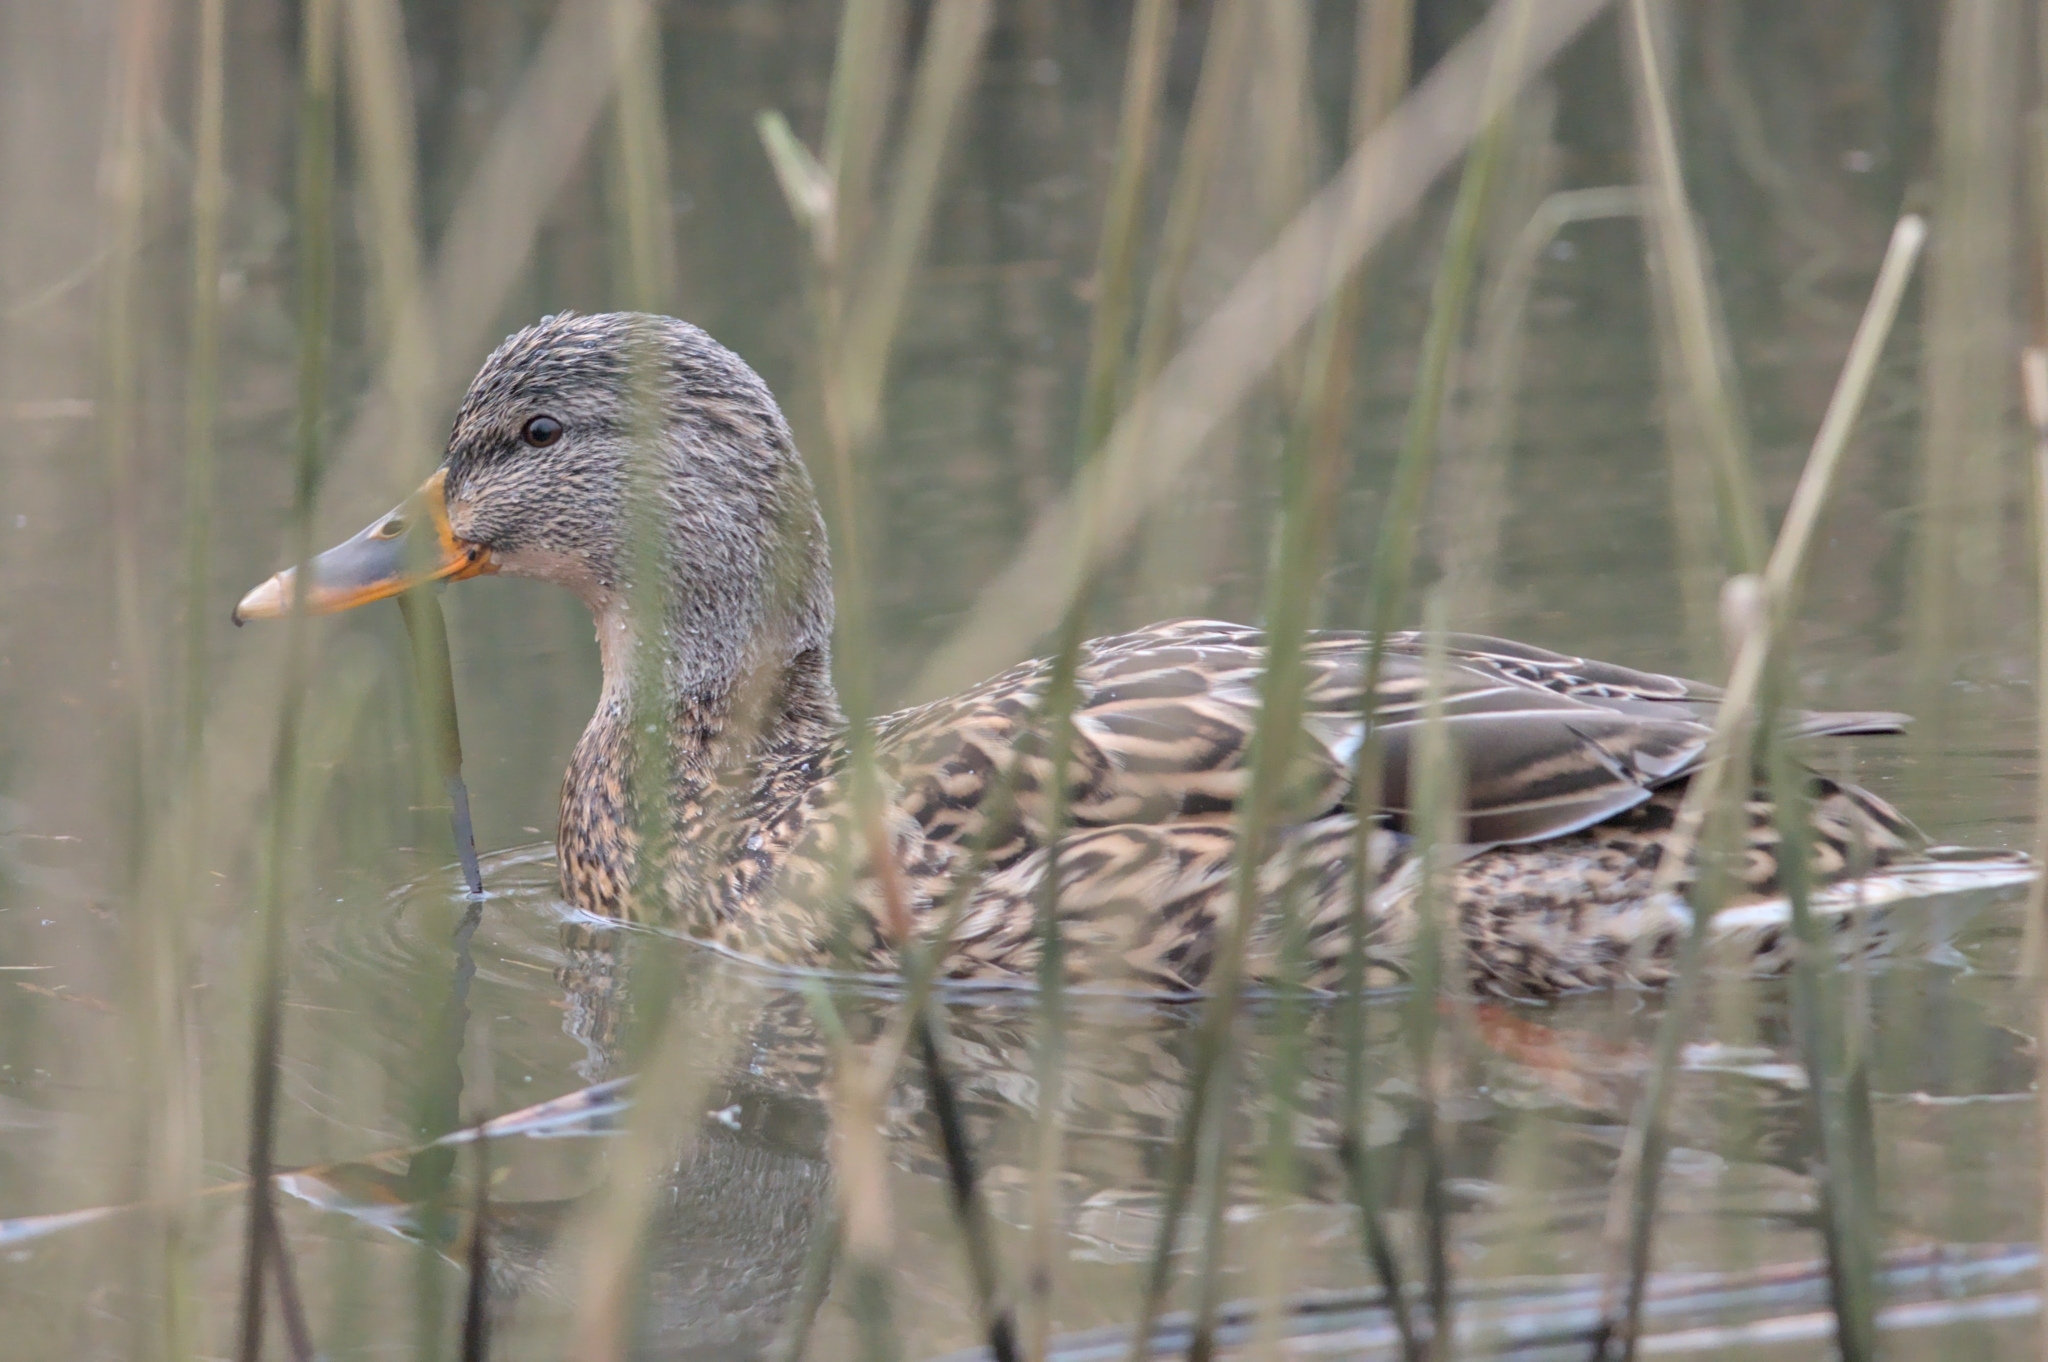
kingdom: Animalia
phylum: Chordata
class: Aves
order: Anseriformes
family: Anatidae
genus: Anas
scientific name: Anas platyrhynchos
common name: Mallard
